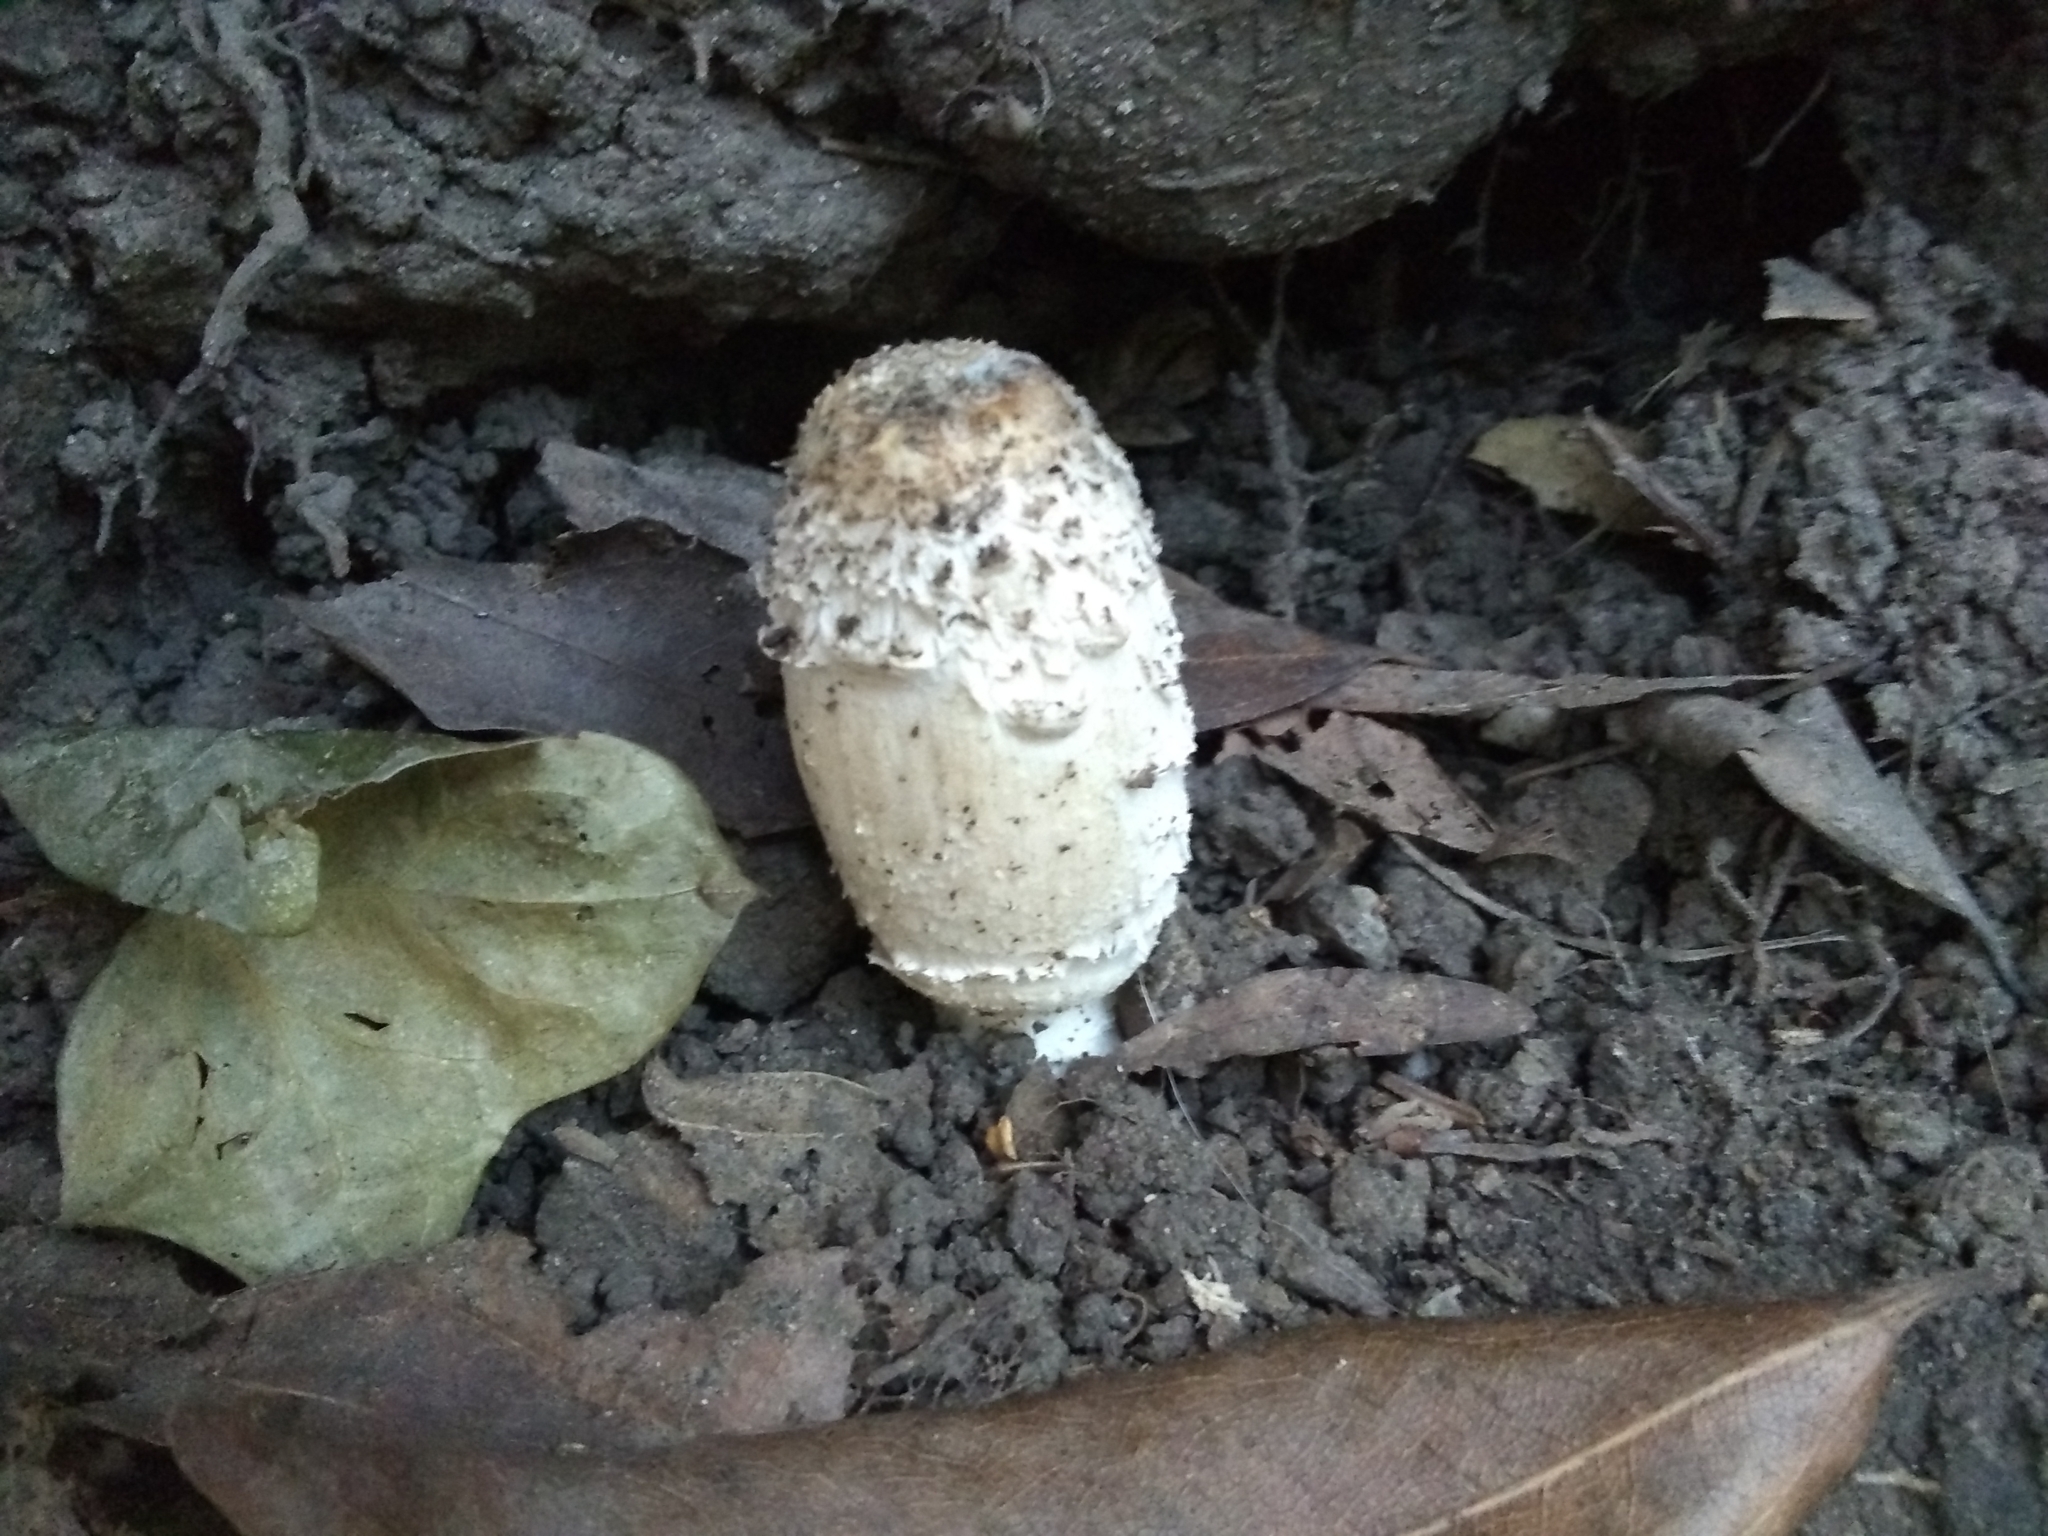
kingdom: Fungi
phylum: Basidiomycota
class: Agaricomycetes
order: Agaricales
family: Agaricaceae
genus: Coprinus
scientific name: Coprinus comatus
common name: Lawyer's wig
